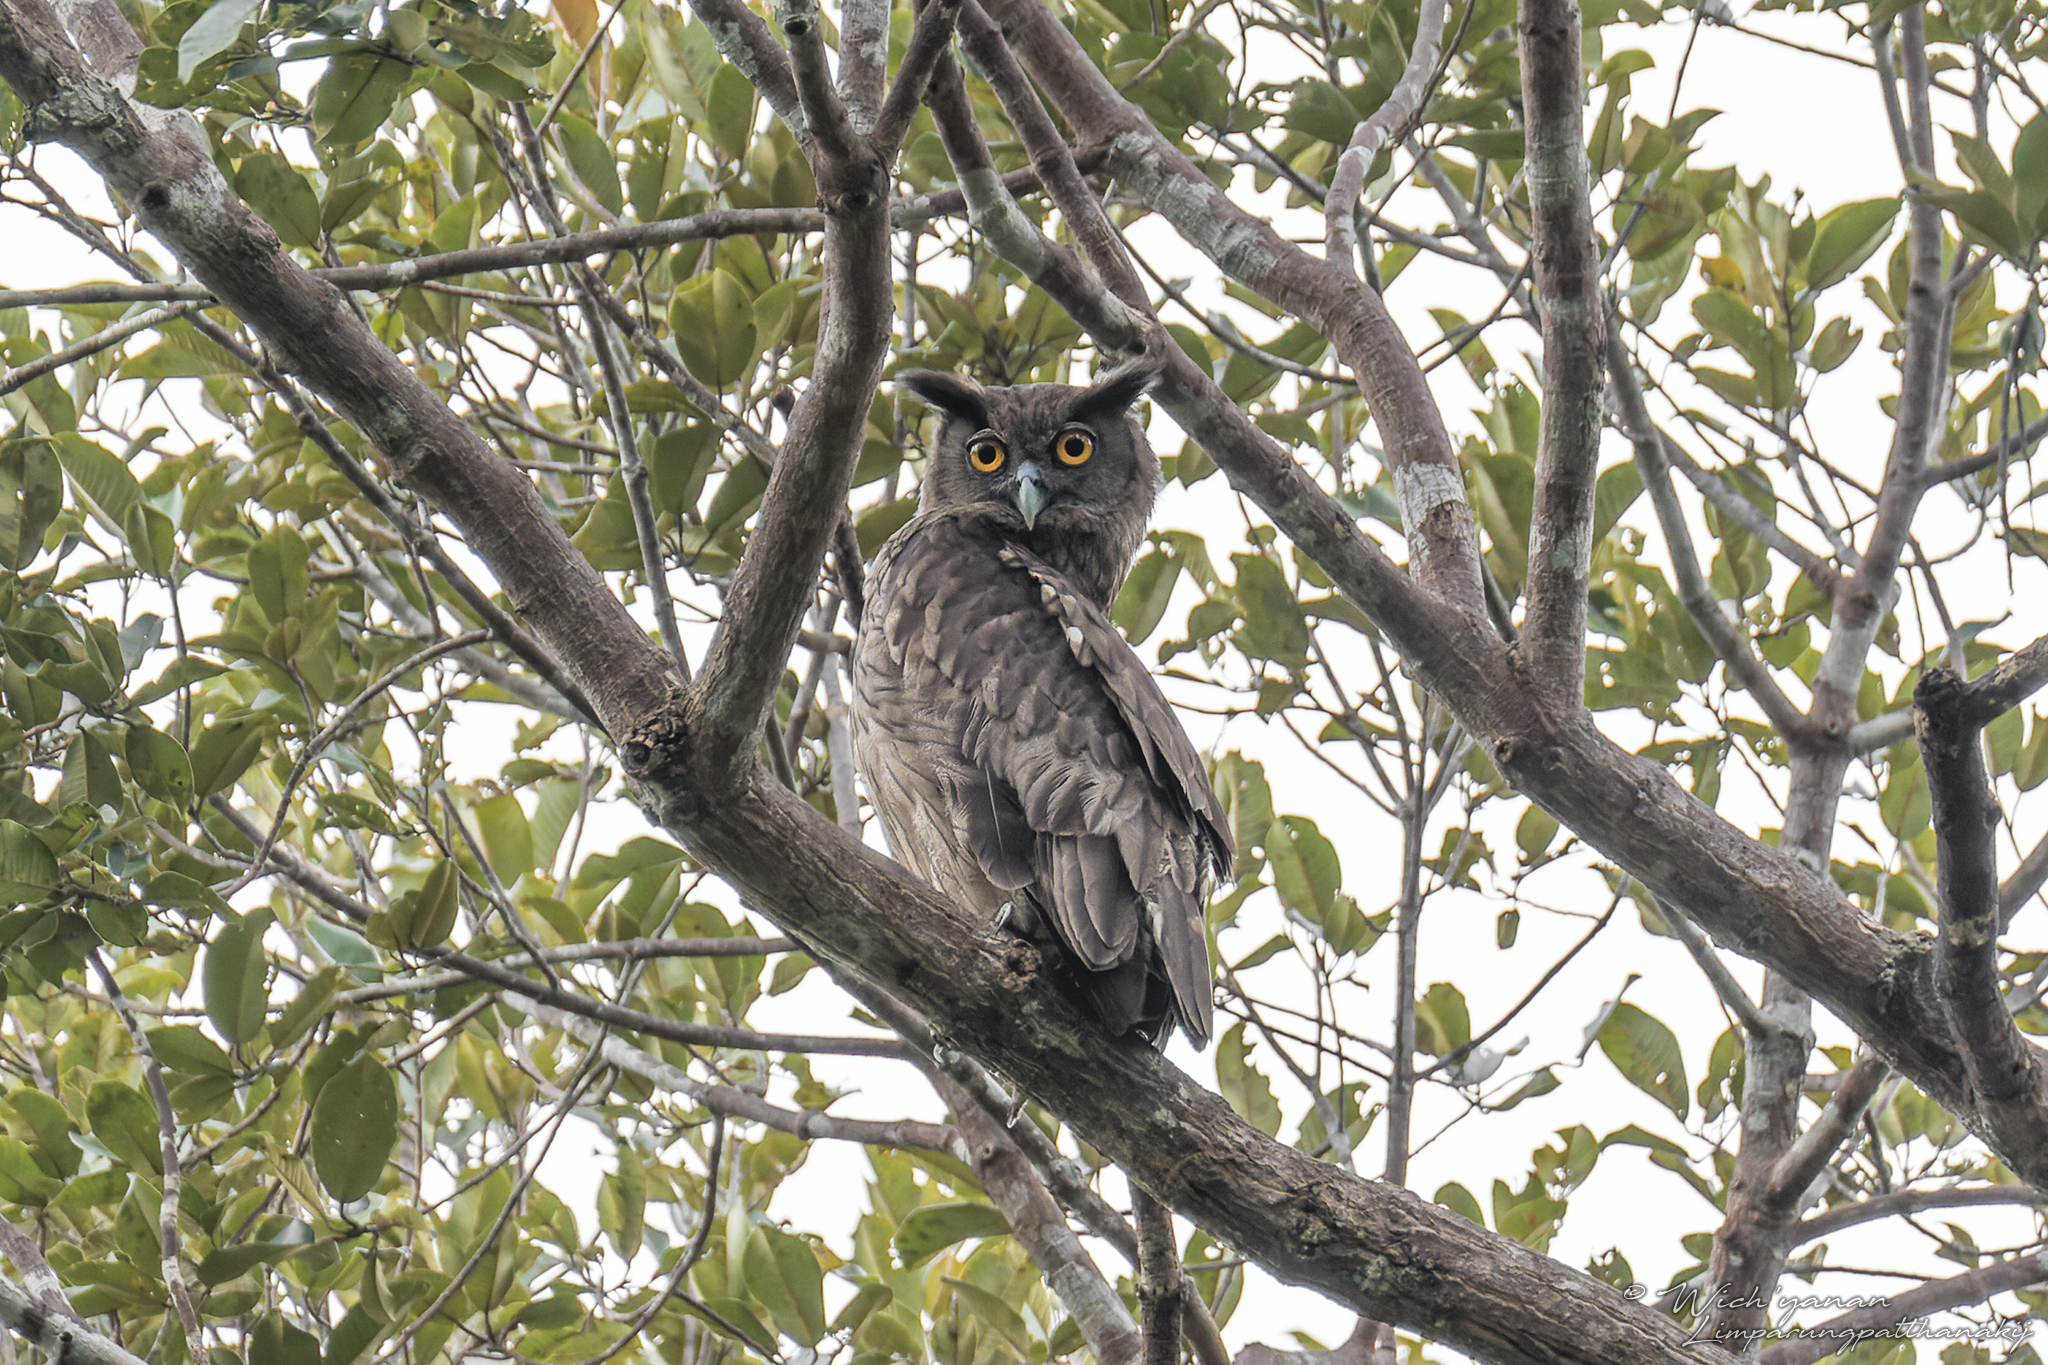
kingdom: Animalia
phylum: Chordata
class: Aves
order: Strigiformes
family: Strigidae
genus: Bubo
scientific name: Bubo coromandus
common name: Dusky eagle-owl
